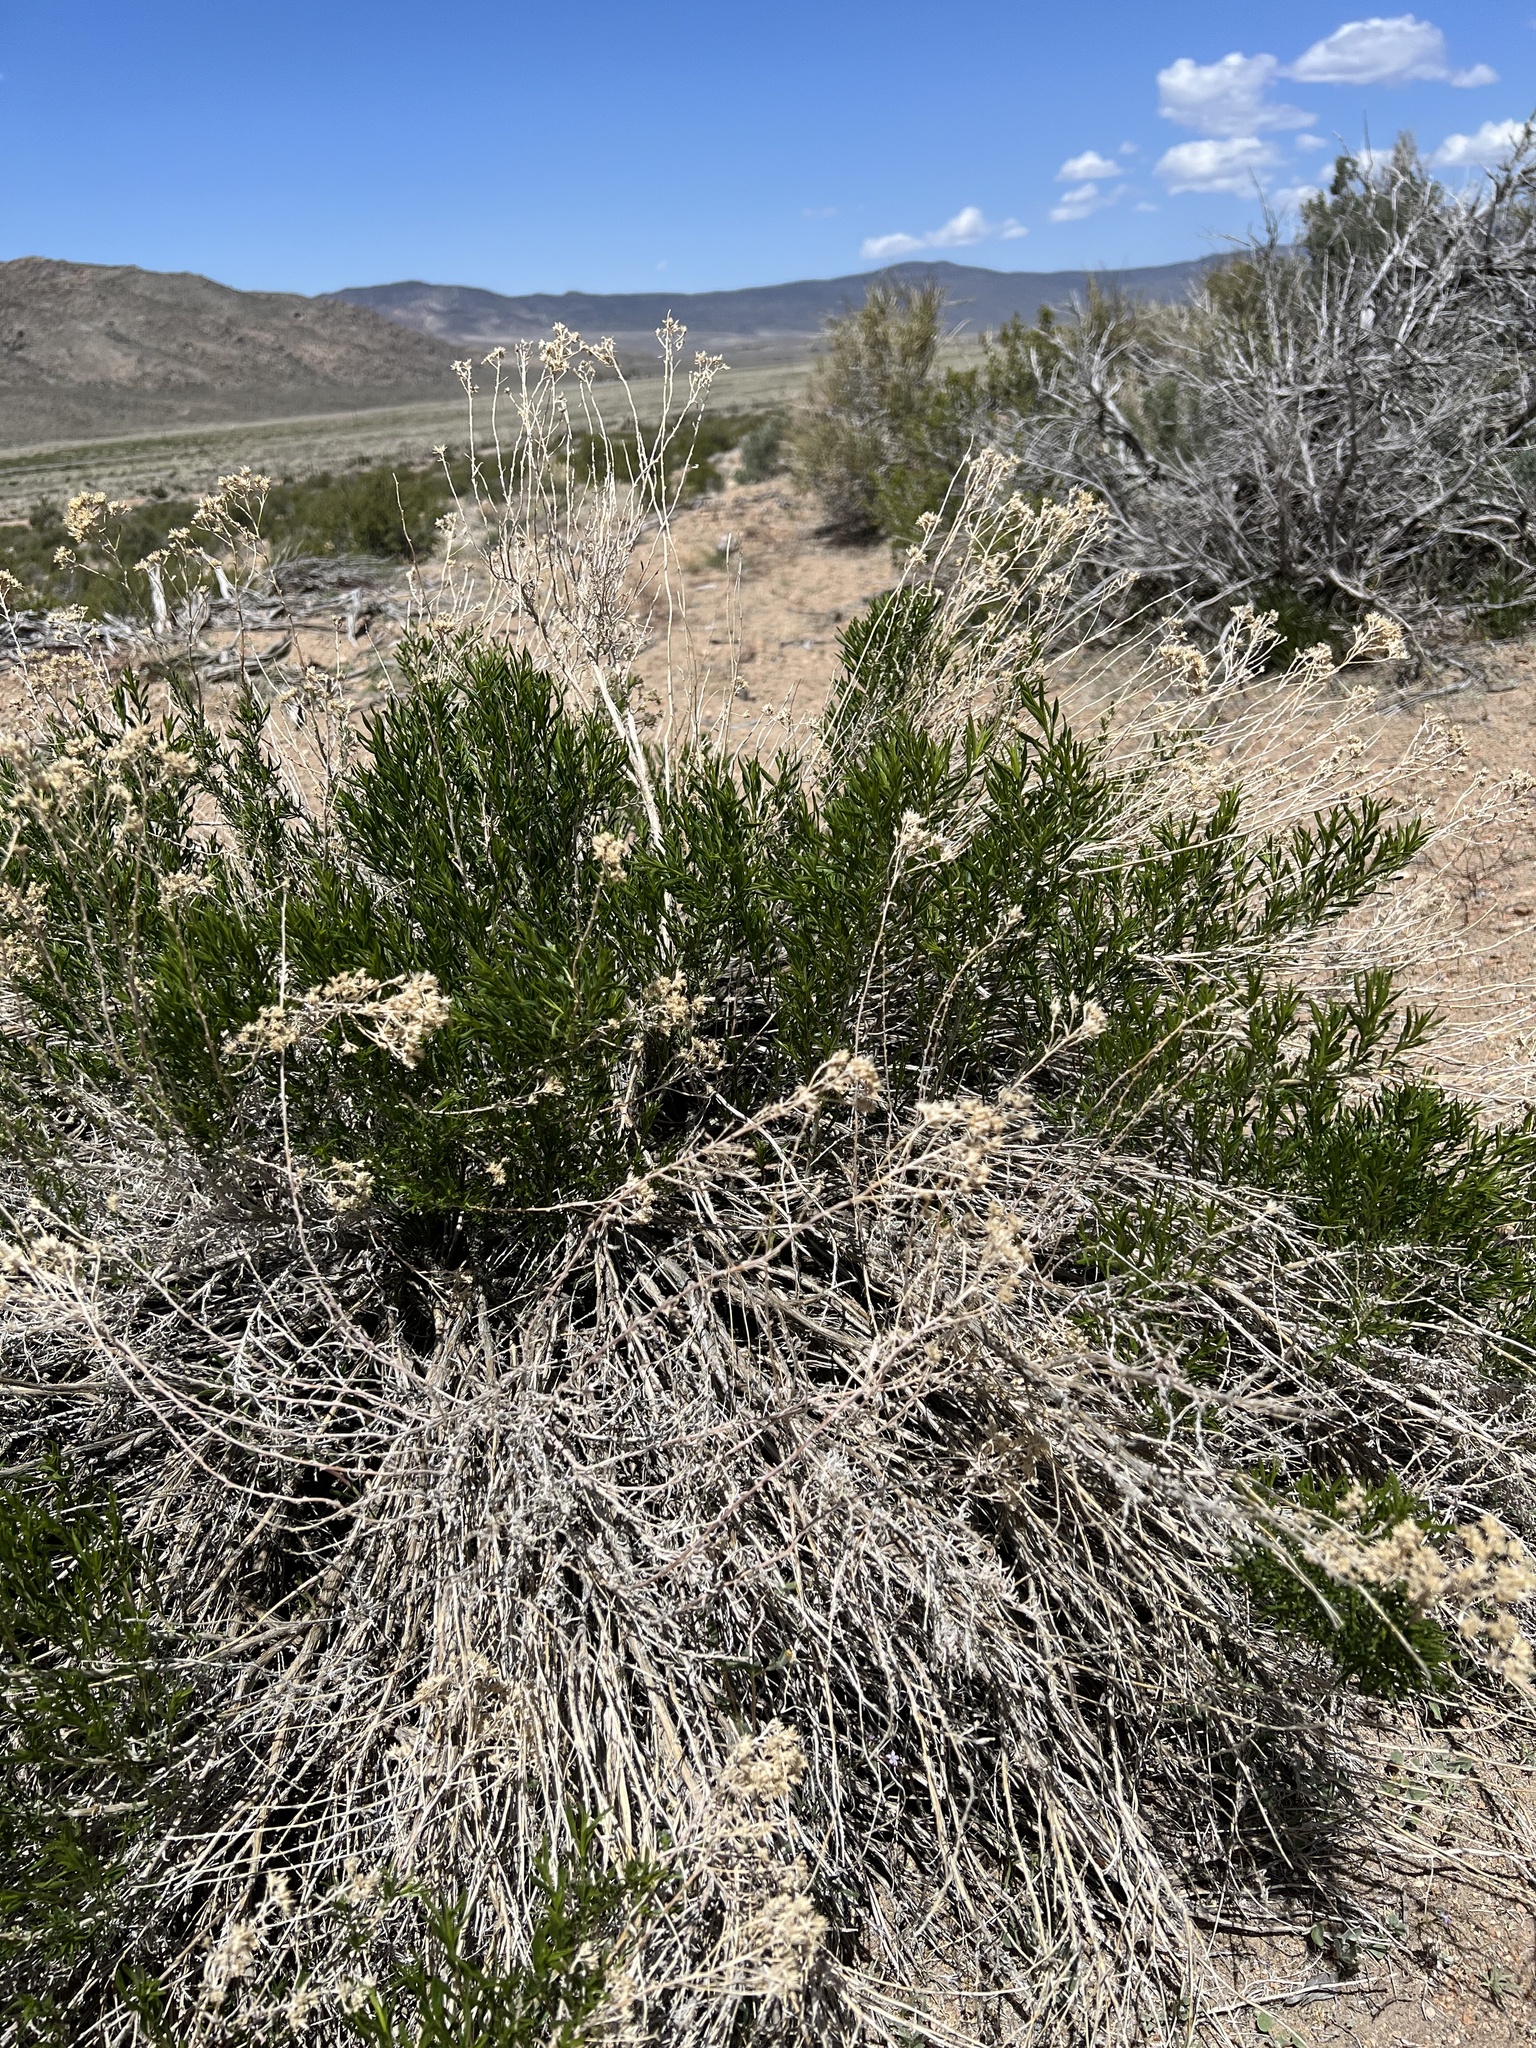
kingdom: Plantae
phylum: Tracheophyta
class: Magnoliopsida
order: Asterales
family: Asteraceae
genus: Chrysothamnus
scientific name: Chrysothamnus viscidiflorus
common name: Yellow rabbitbrush
